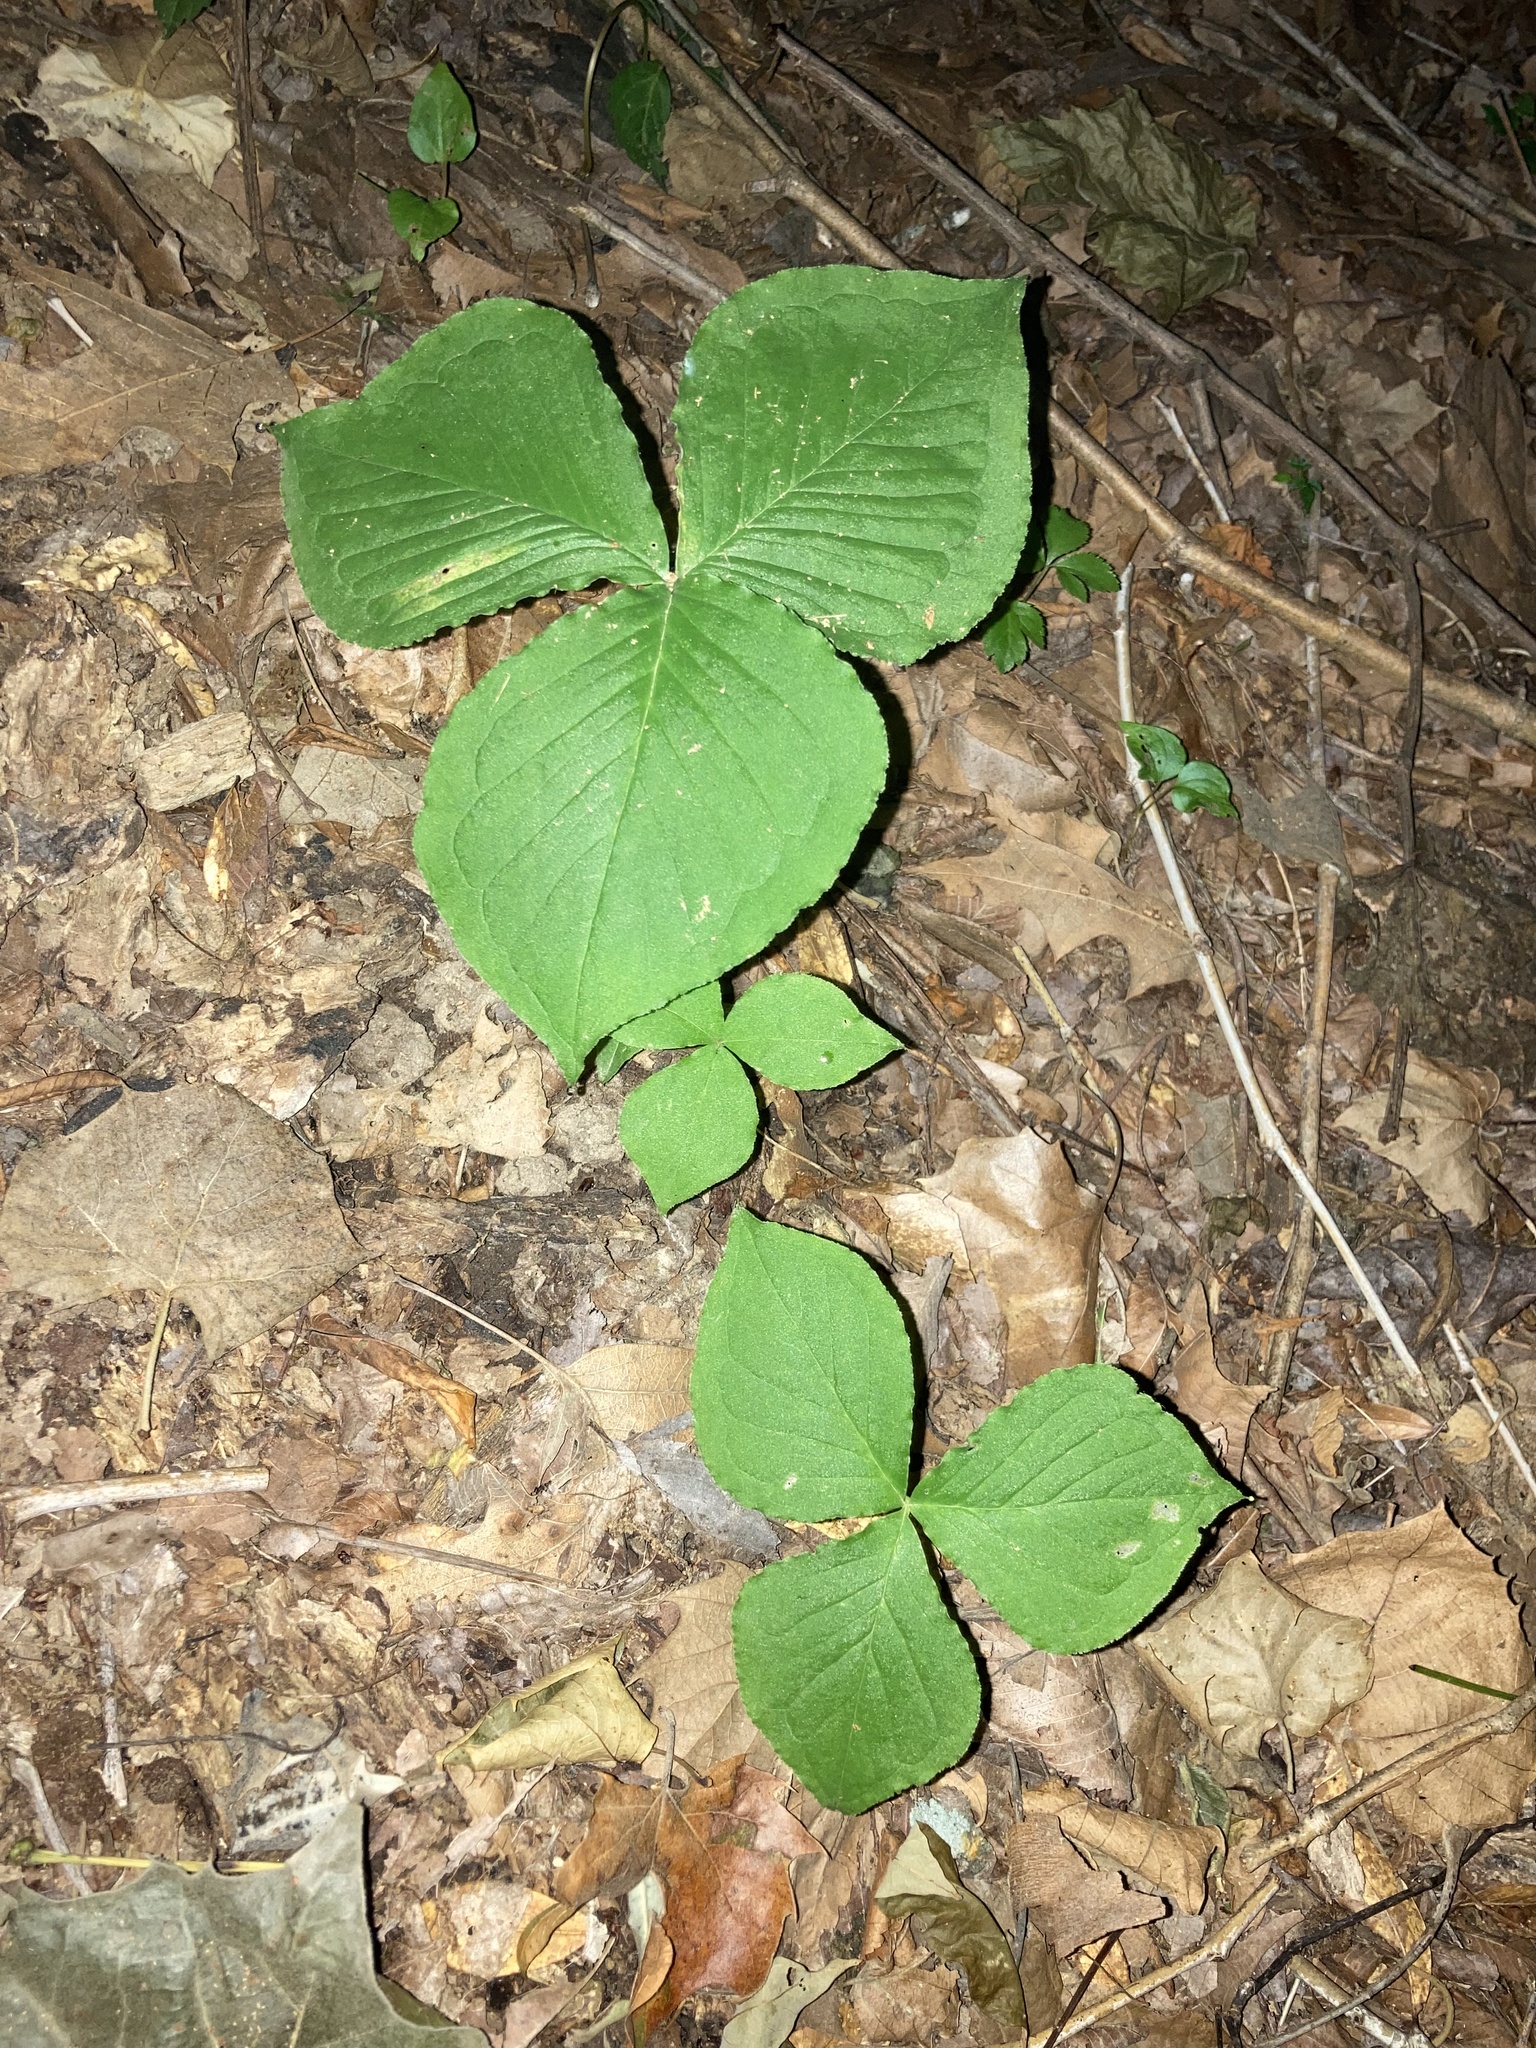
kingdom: Plantae
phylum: Tracheophyta
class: Liliopsida
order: Alismatales
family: Araceae
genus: Arisaema
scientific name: Arisaema triphyllum
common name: Jack-in-the-pulpit
